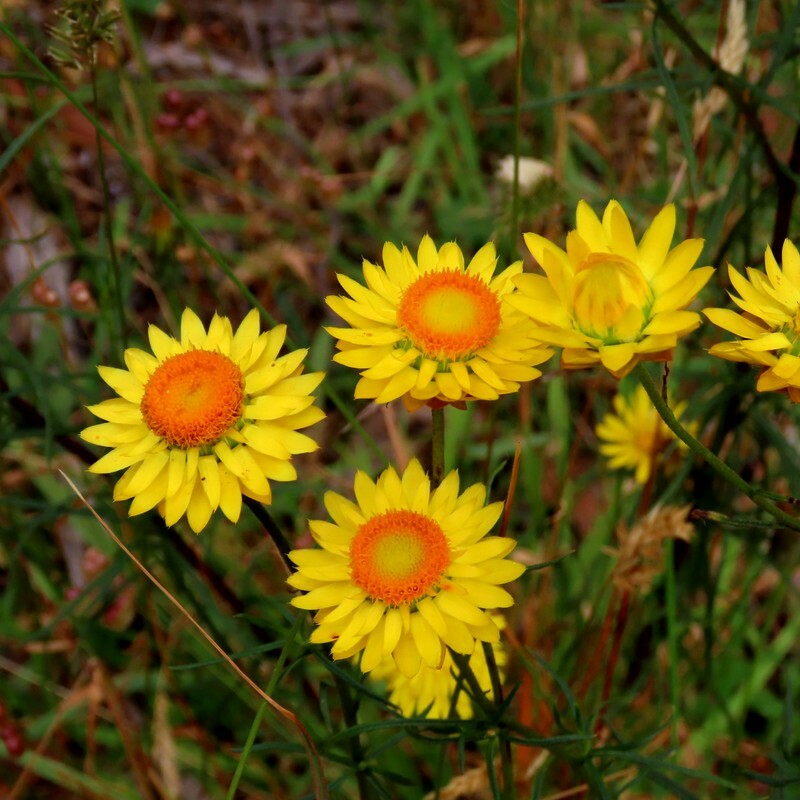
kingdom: Plantae
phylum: Tracheophyta
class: Magnoliopsida
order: Asterales
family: Asteraceae
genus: Xerochrysum
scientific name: Xerochrysum viscosum
